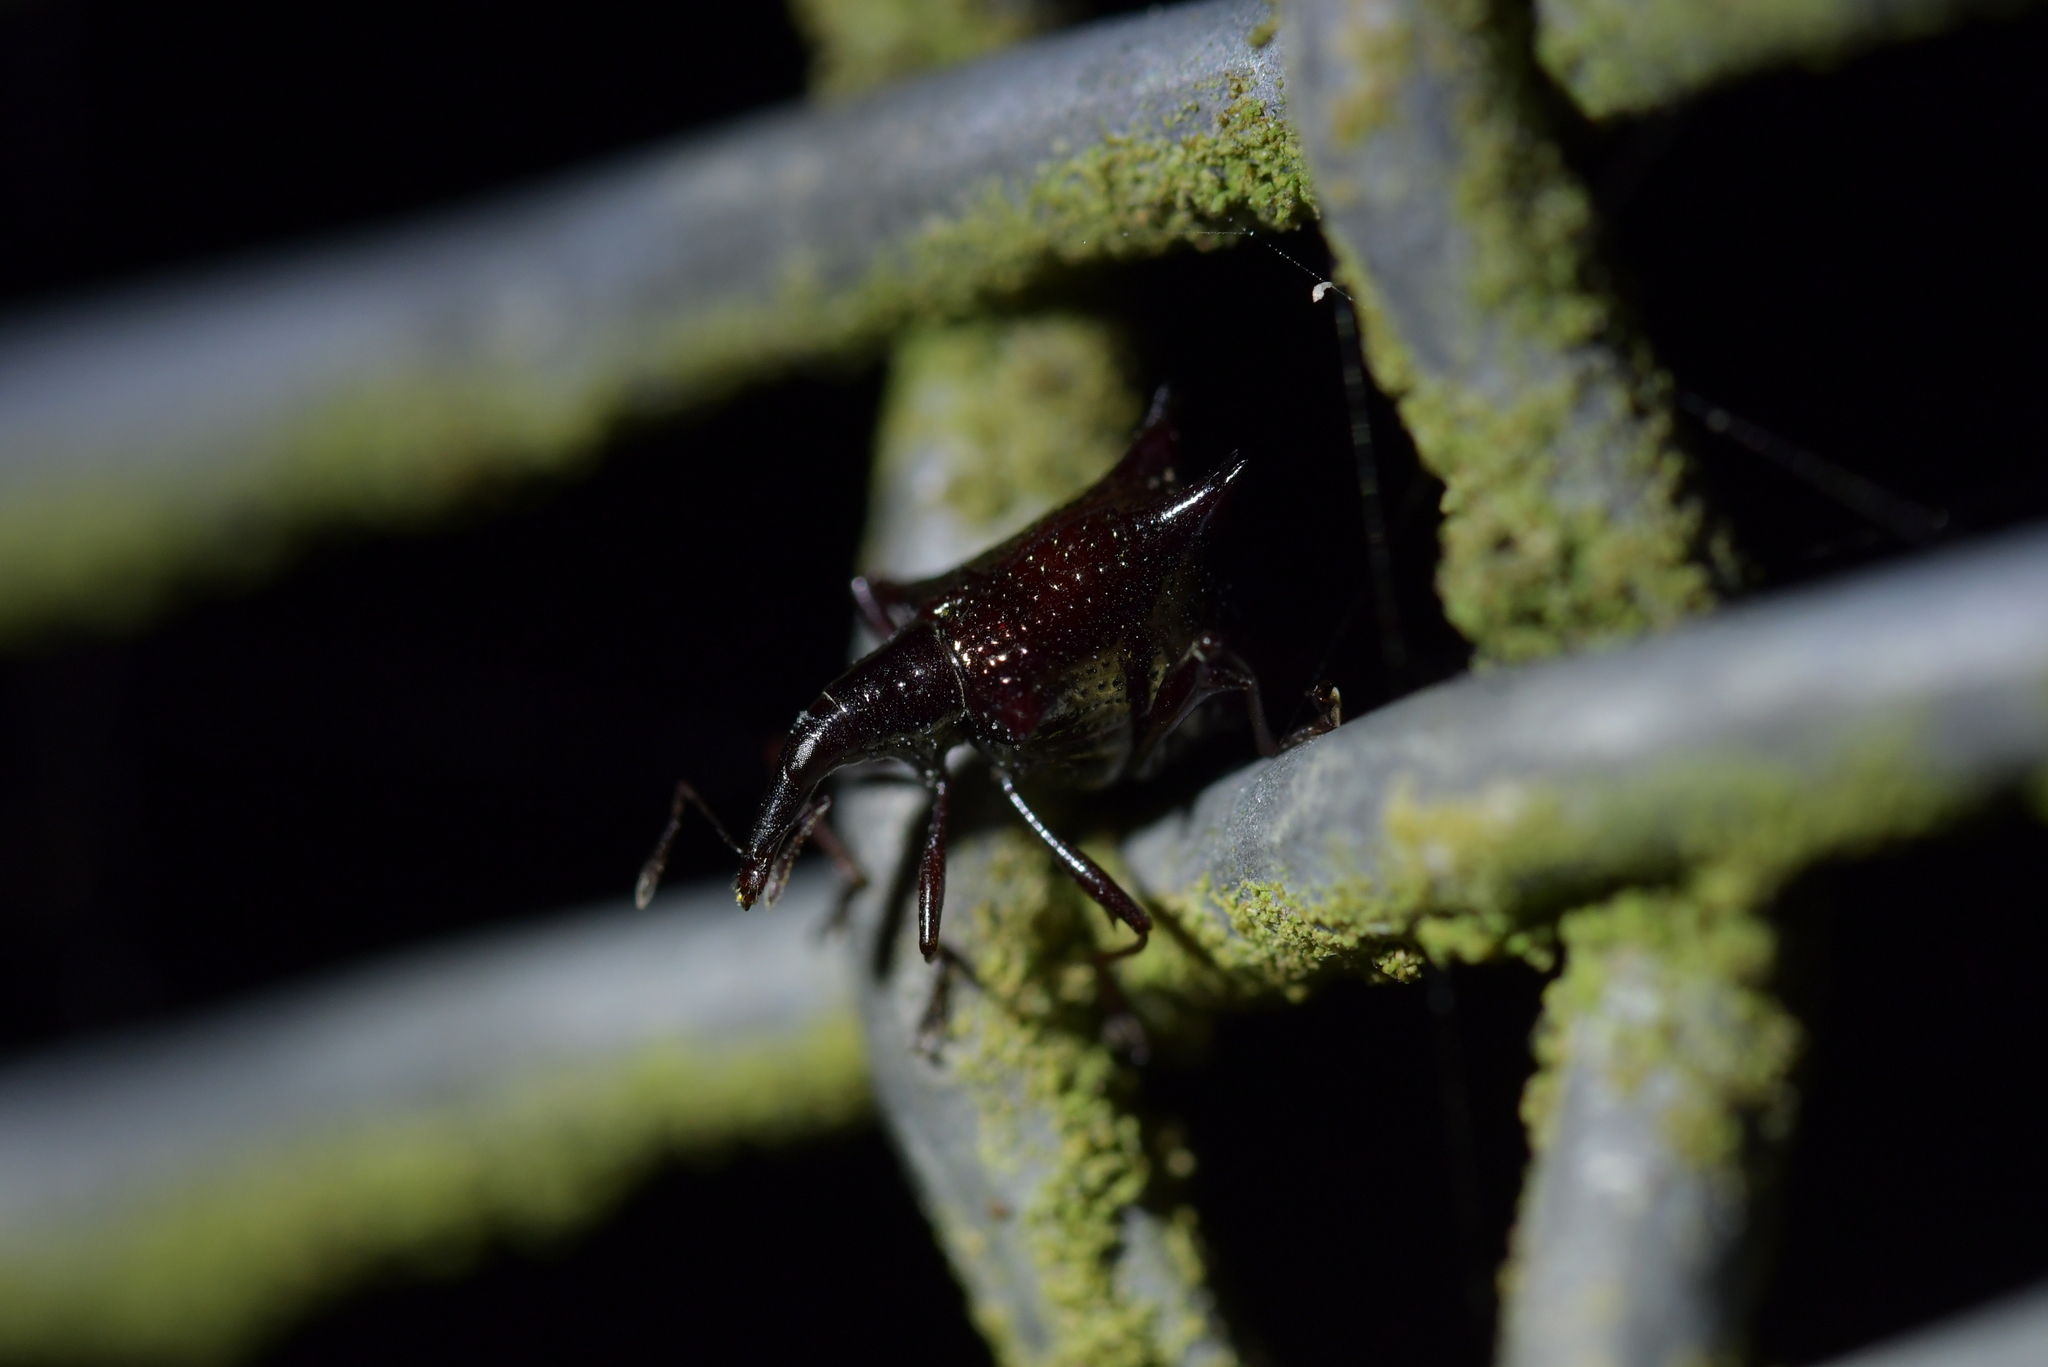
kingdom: Animalia
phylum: Arthropoda
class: Insecta
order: Coleoptera
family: Curculionidae
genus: Scolopterus
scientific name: Scolopterus aequus
